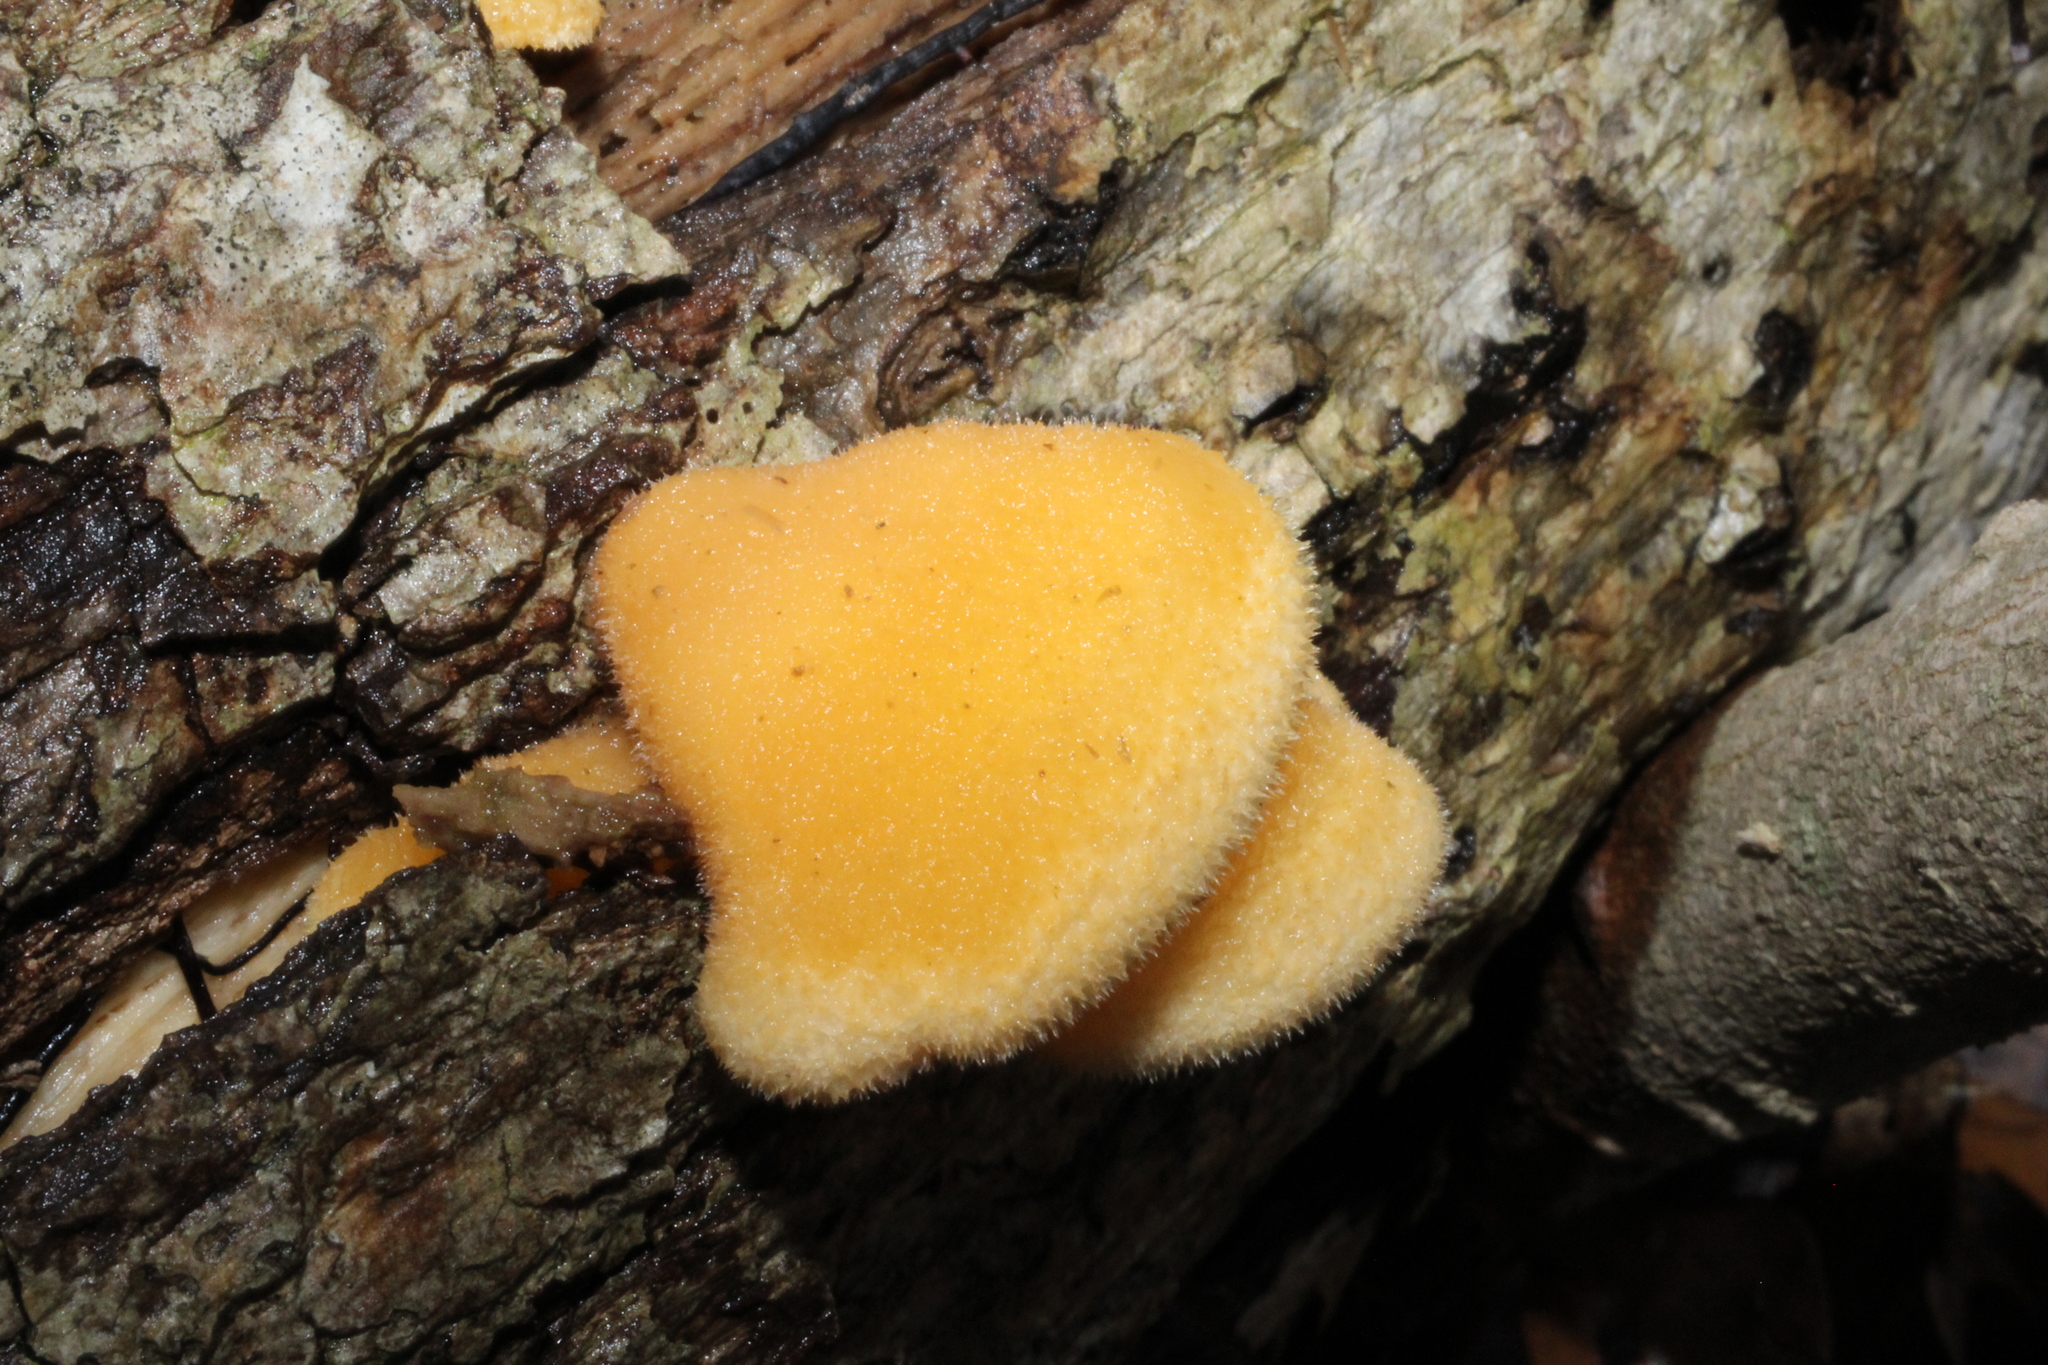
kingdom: Fungi
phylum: Basidiomycota
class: Agaricomycetes
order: Agaricales
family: Phyllotopsidaceae
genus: Phyllotopsis
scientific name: Phyllotopsis nidulans
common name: Orange mock oyster
